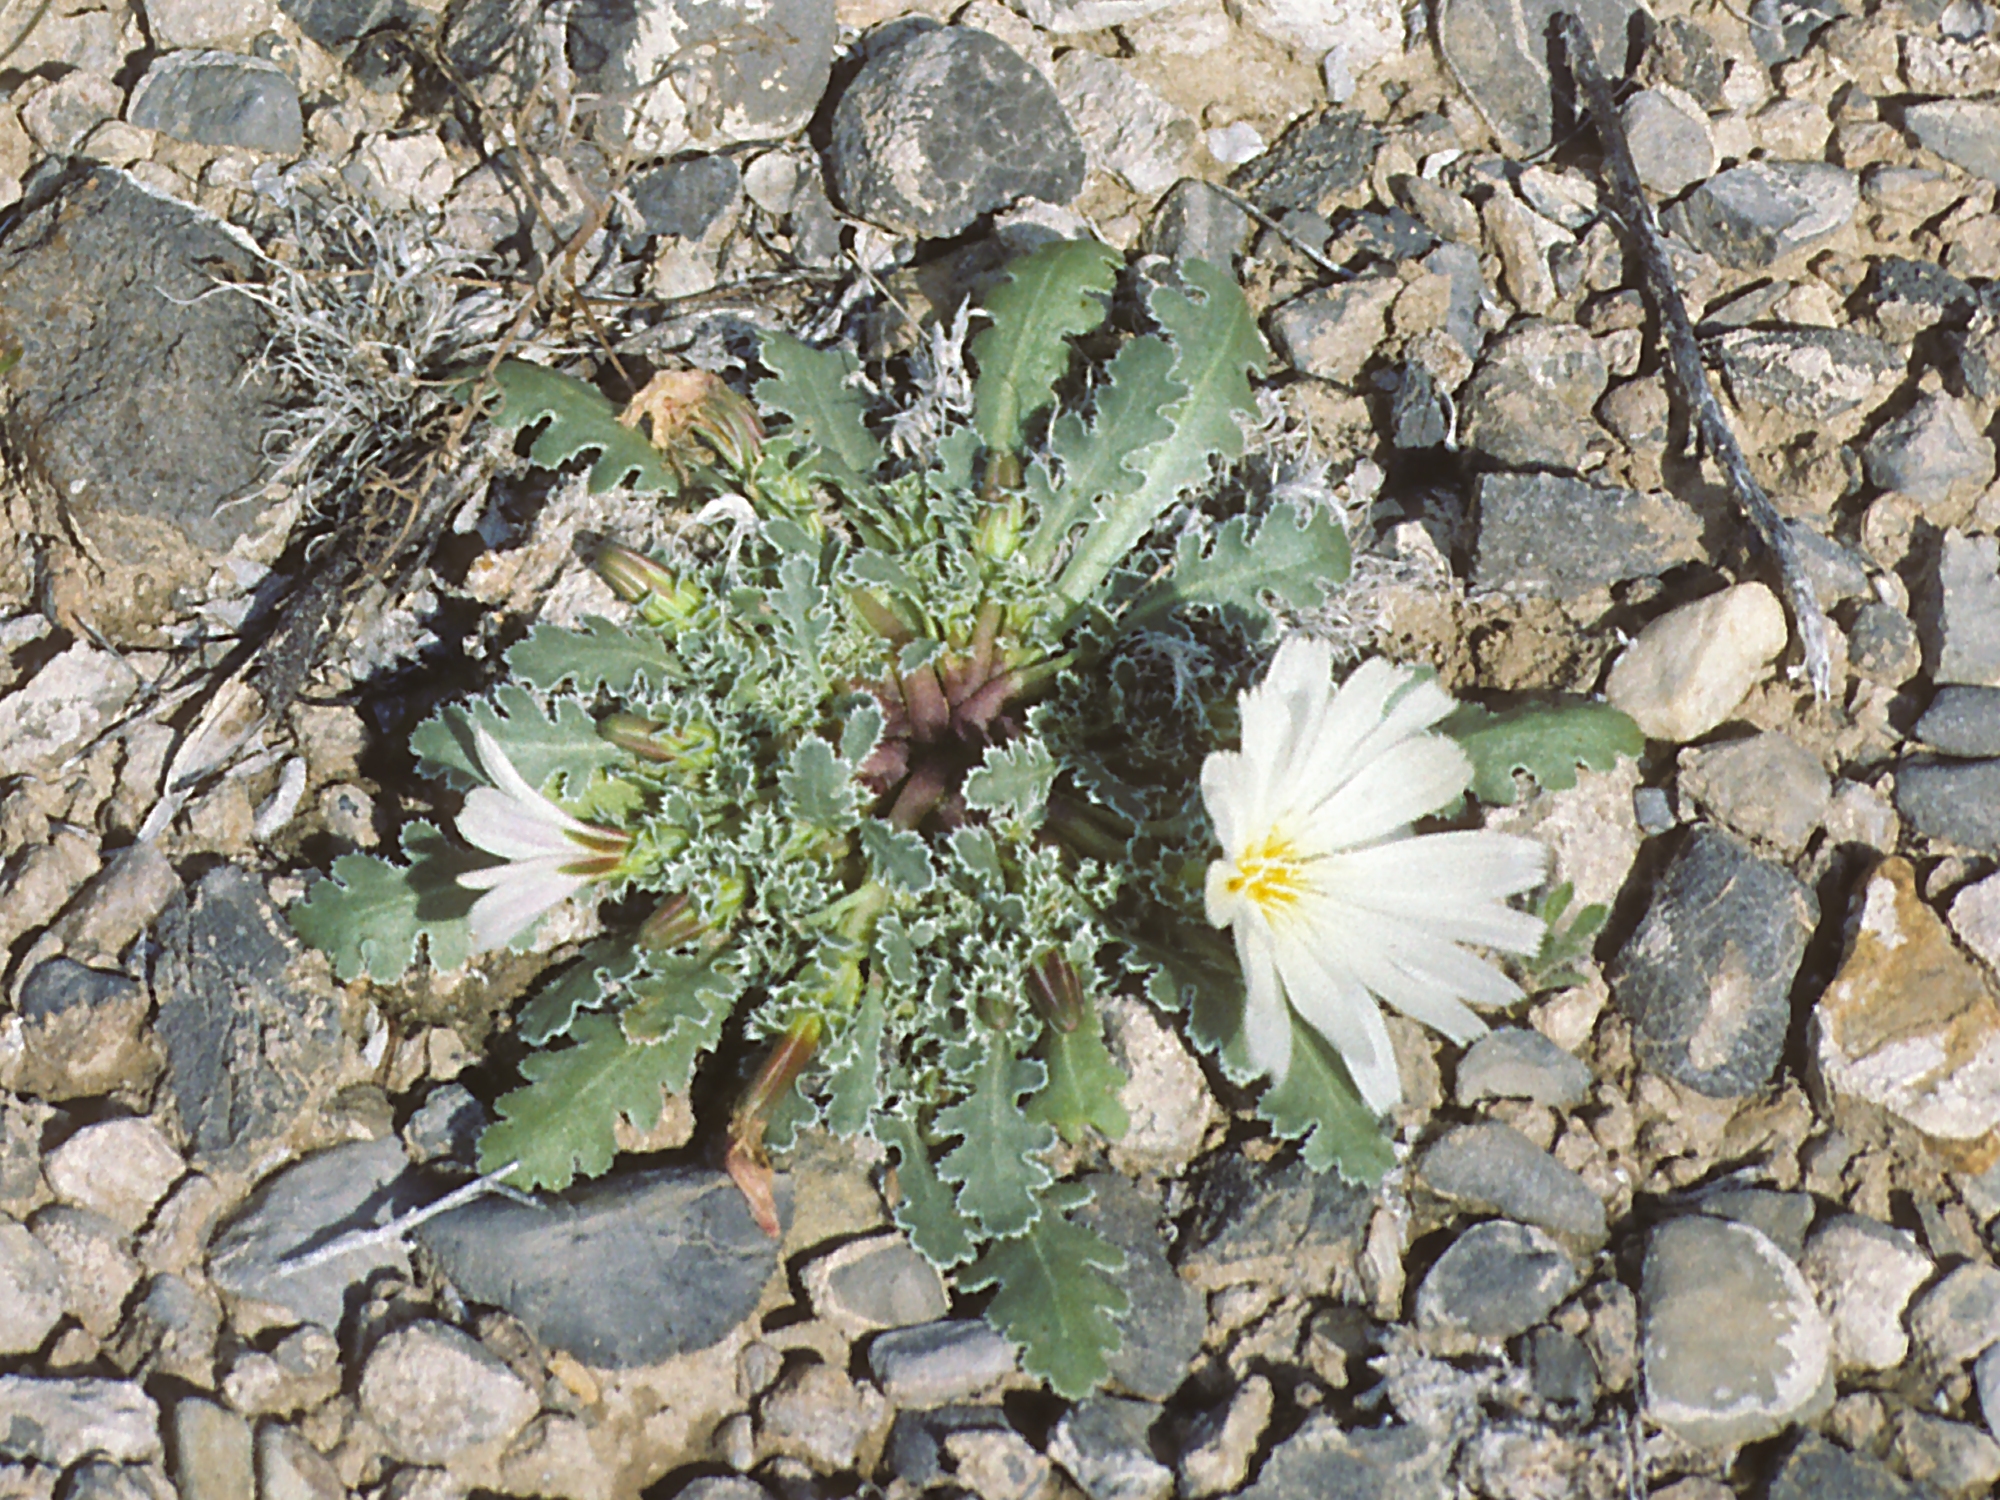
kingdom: Plantae
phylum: Tracheophyta
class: Magnoliopsida
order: Asterales
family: Asteraceae
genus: Glyptopleura
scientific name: Glyptopleura setulosa
